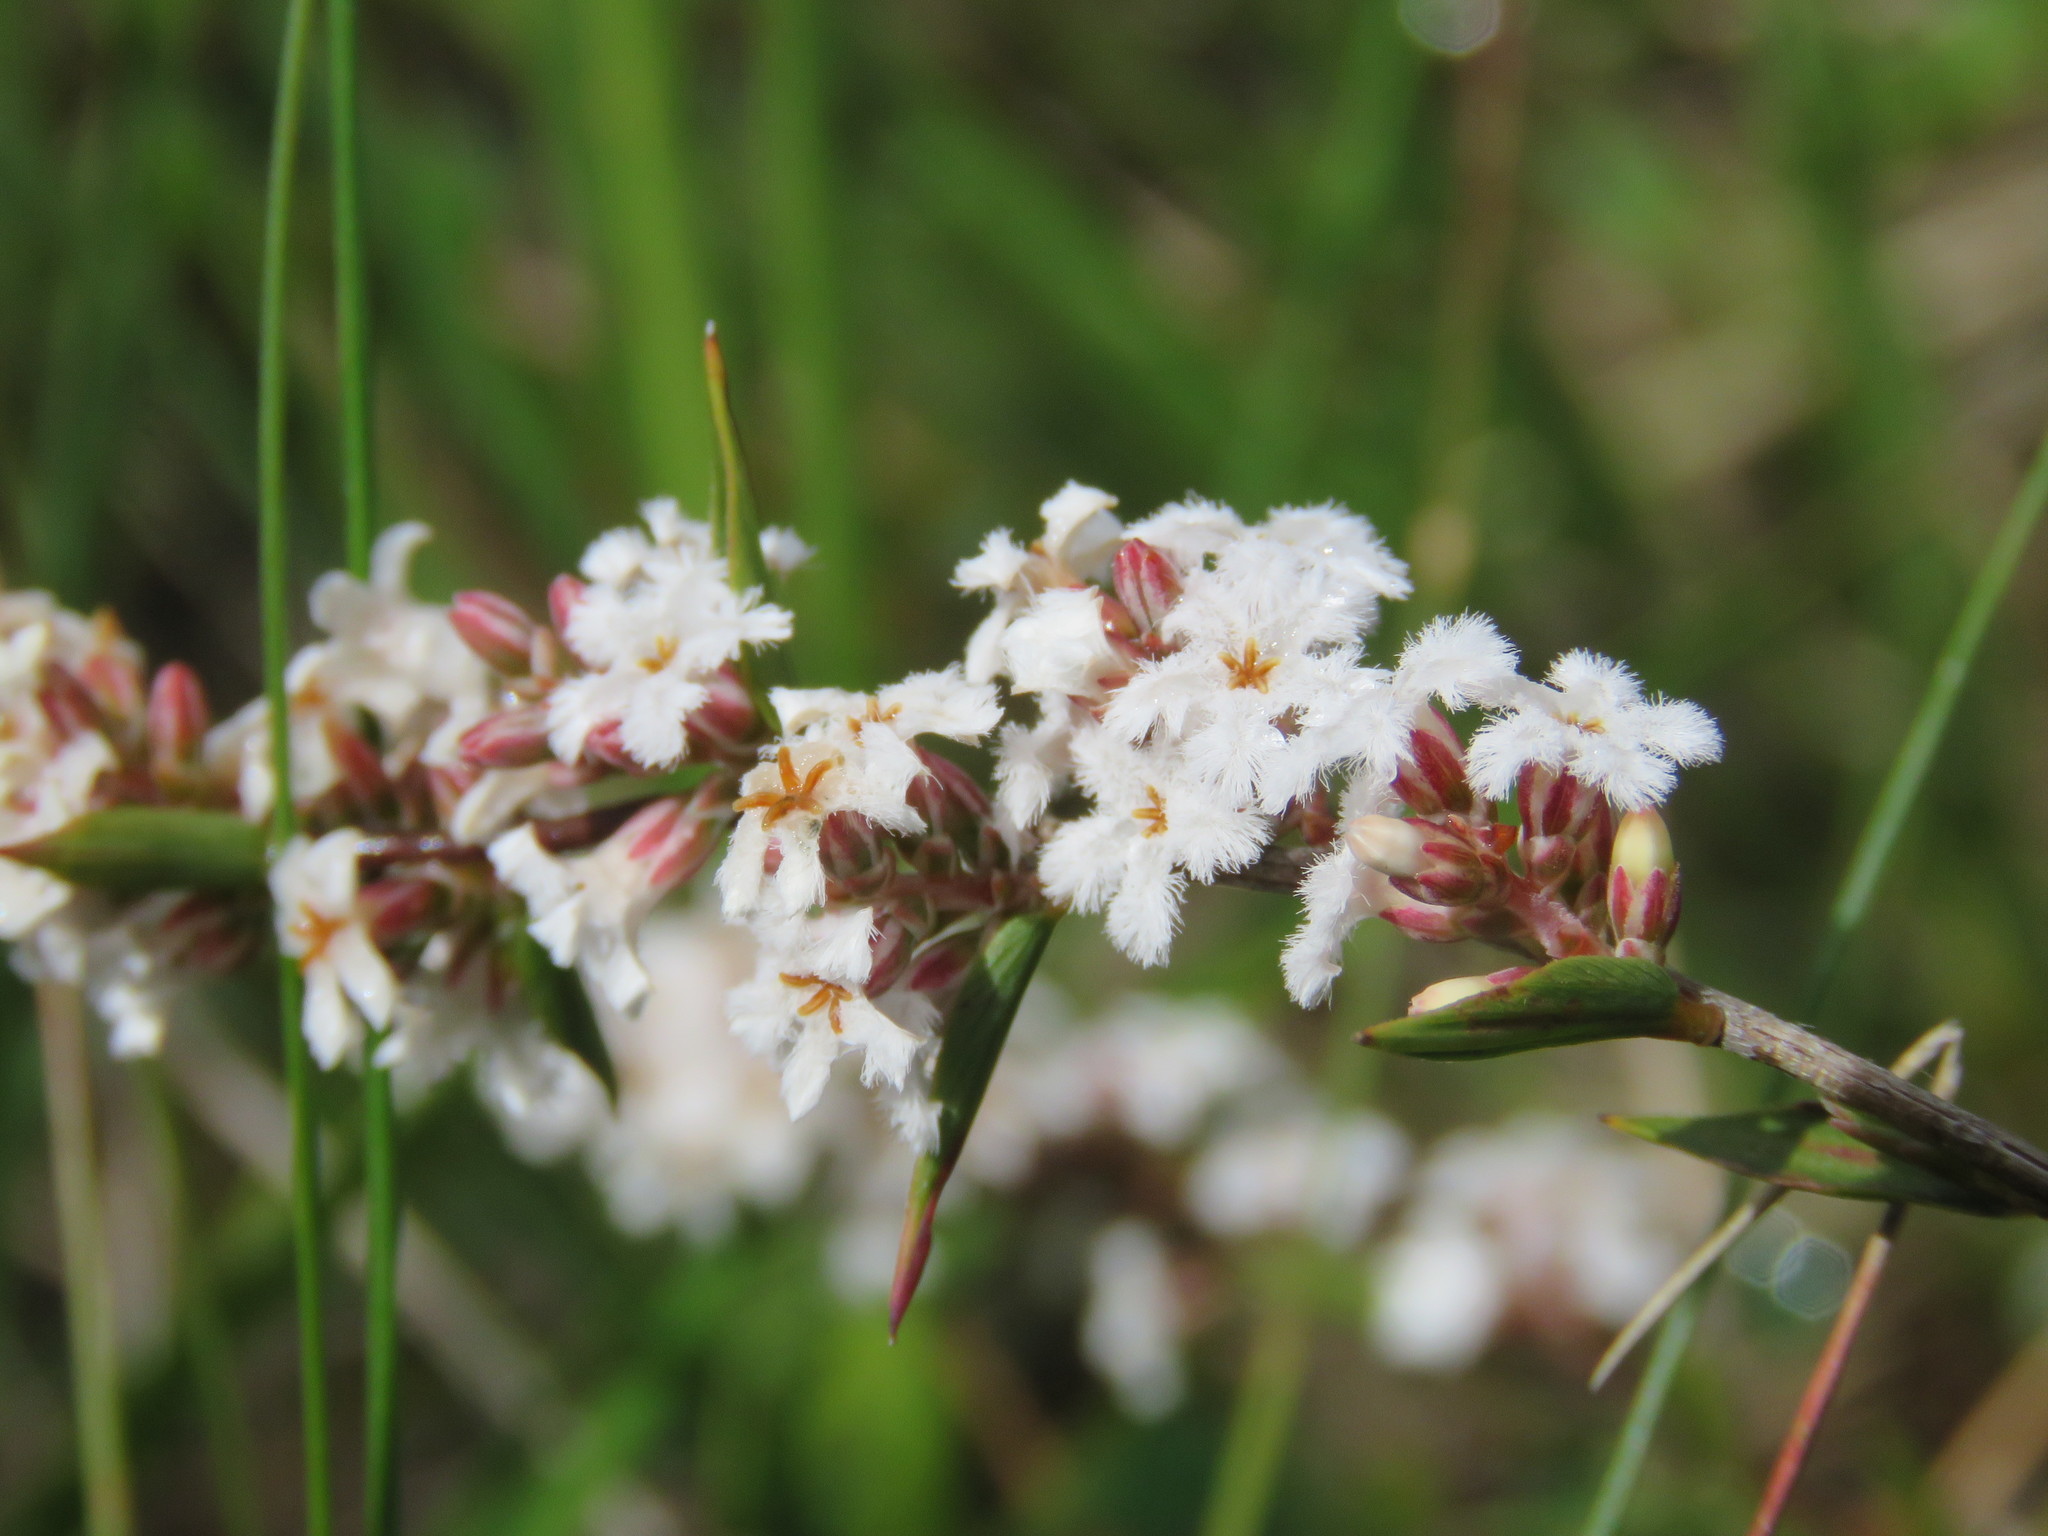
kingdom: Plantae
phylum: Tracheophyta
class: Magnoliopsida
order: Ericales
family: Ericaceae
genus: Leucopogon
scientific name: Leucopogon virgatus
